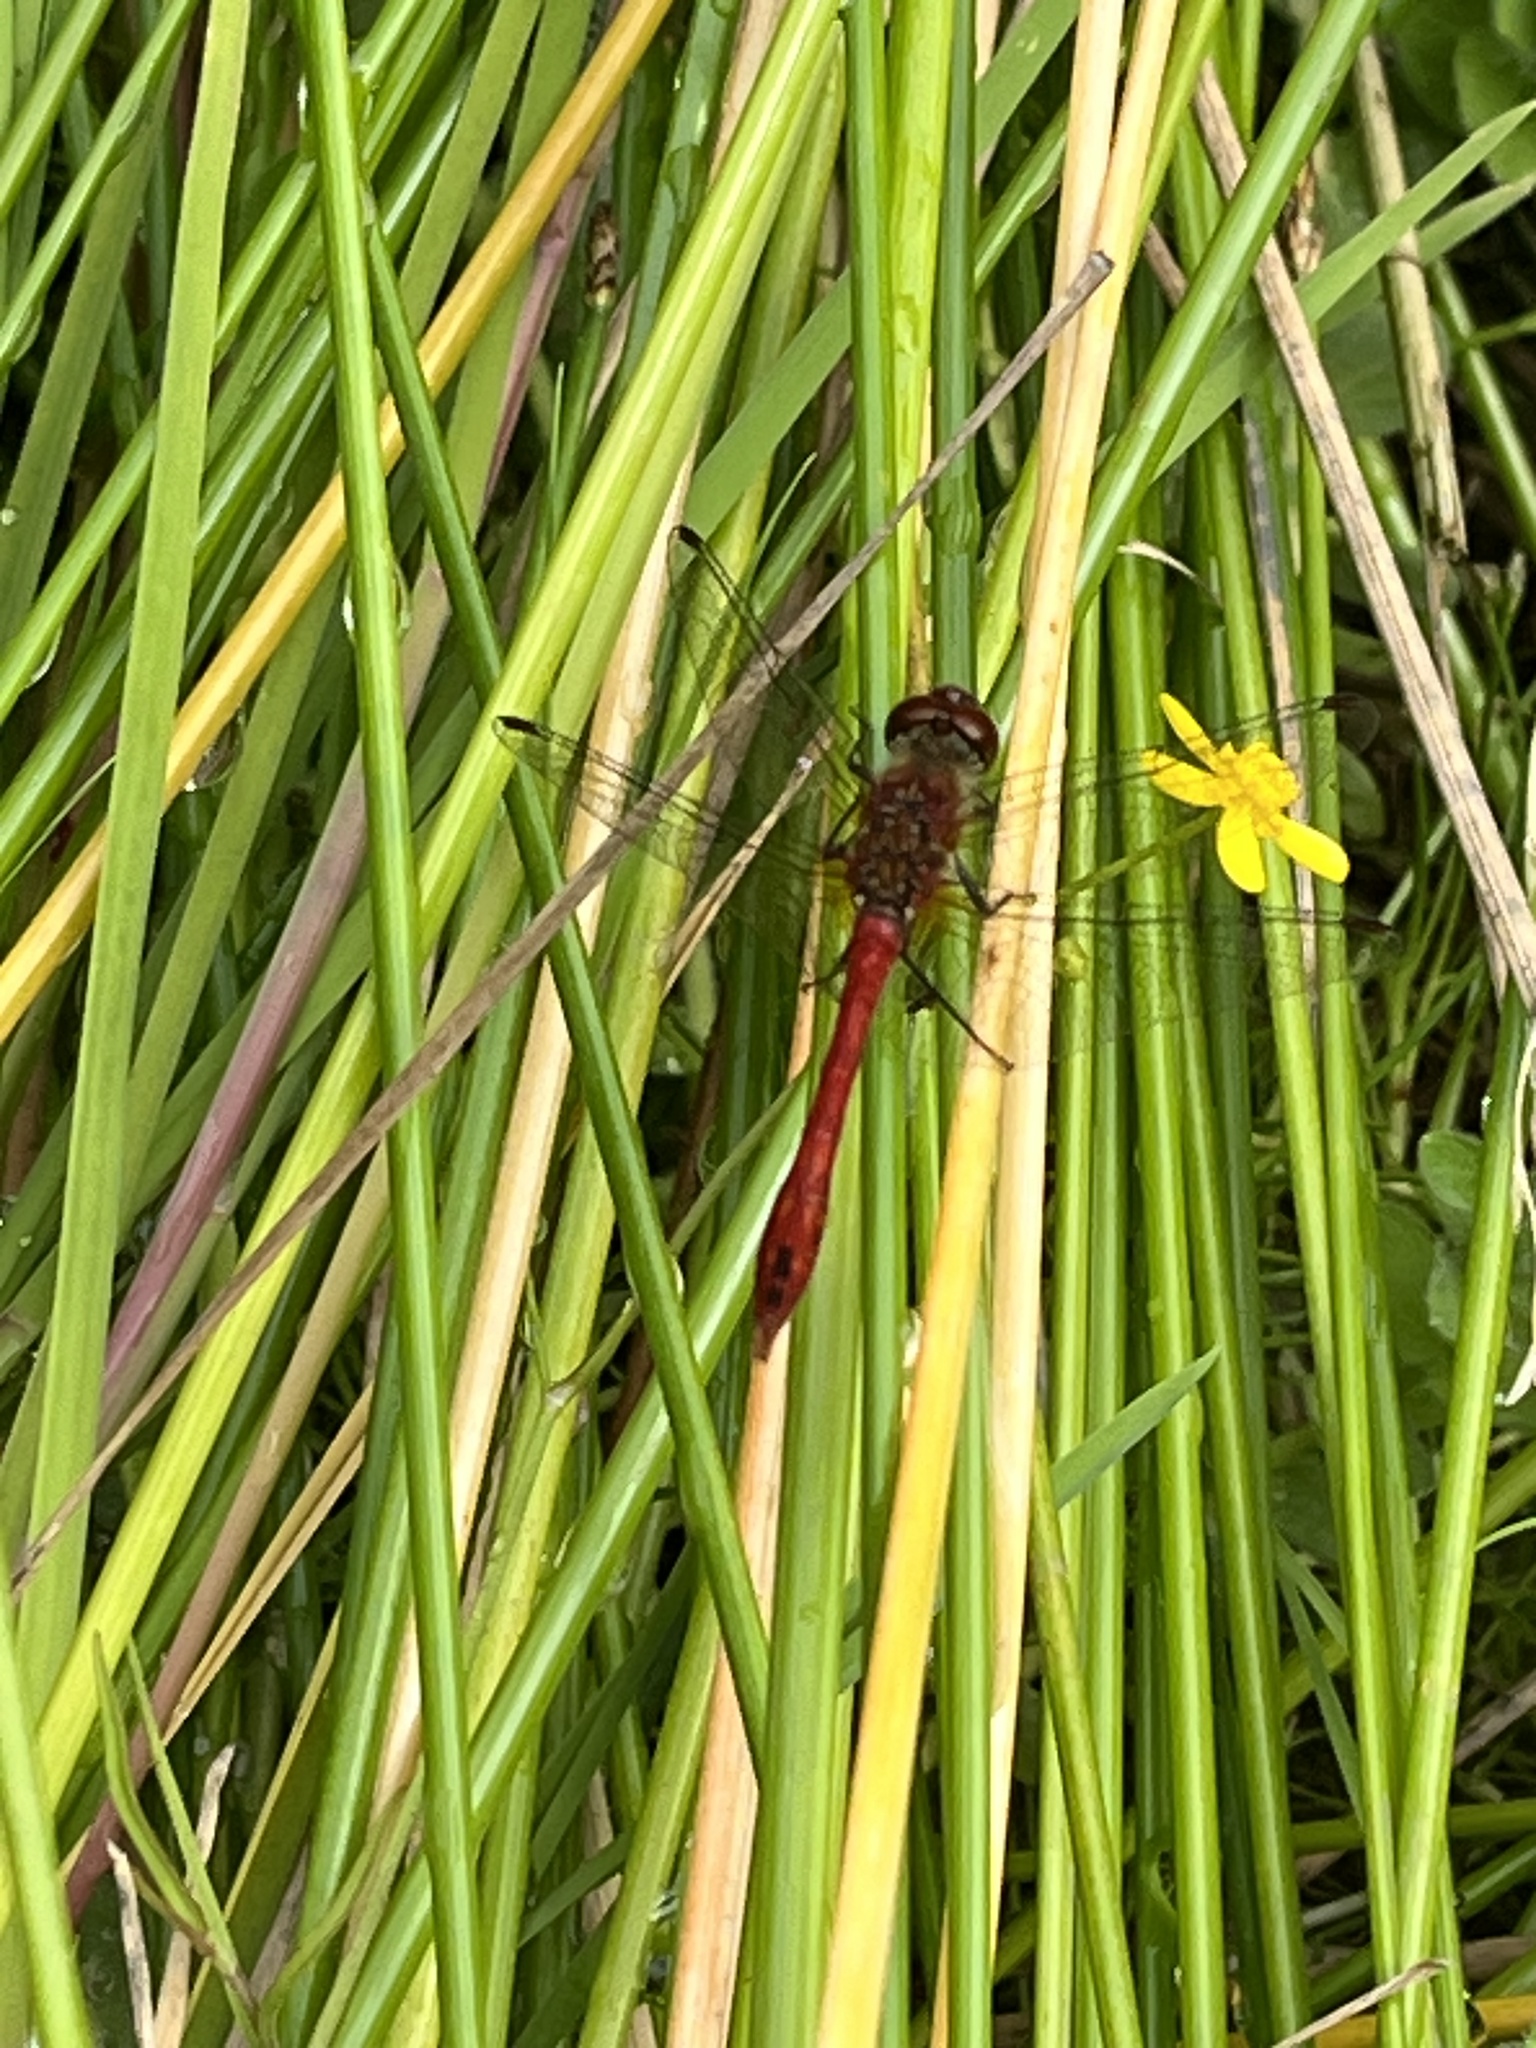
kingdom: Animalia
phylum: Arthropoda
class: Insecta
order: Odonata
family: Libellulidae
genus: Sympetrum
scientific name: Sympetrum sanguineum
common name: Ruddy darter
